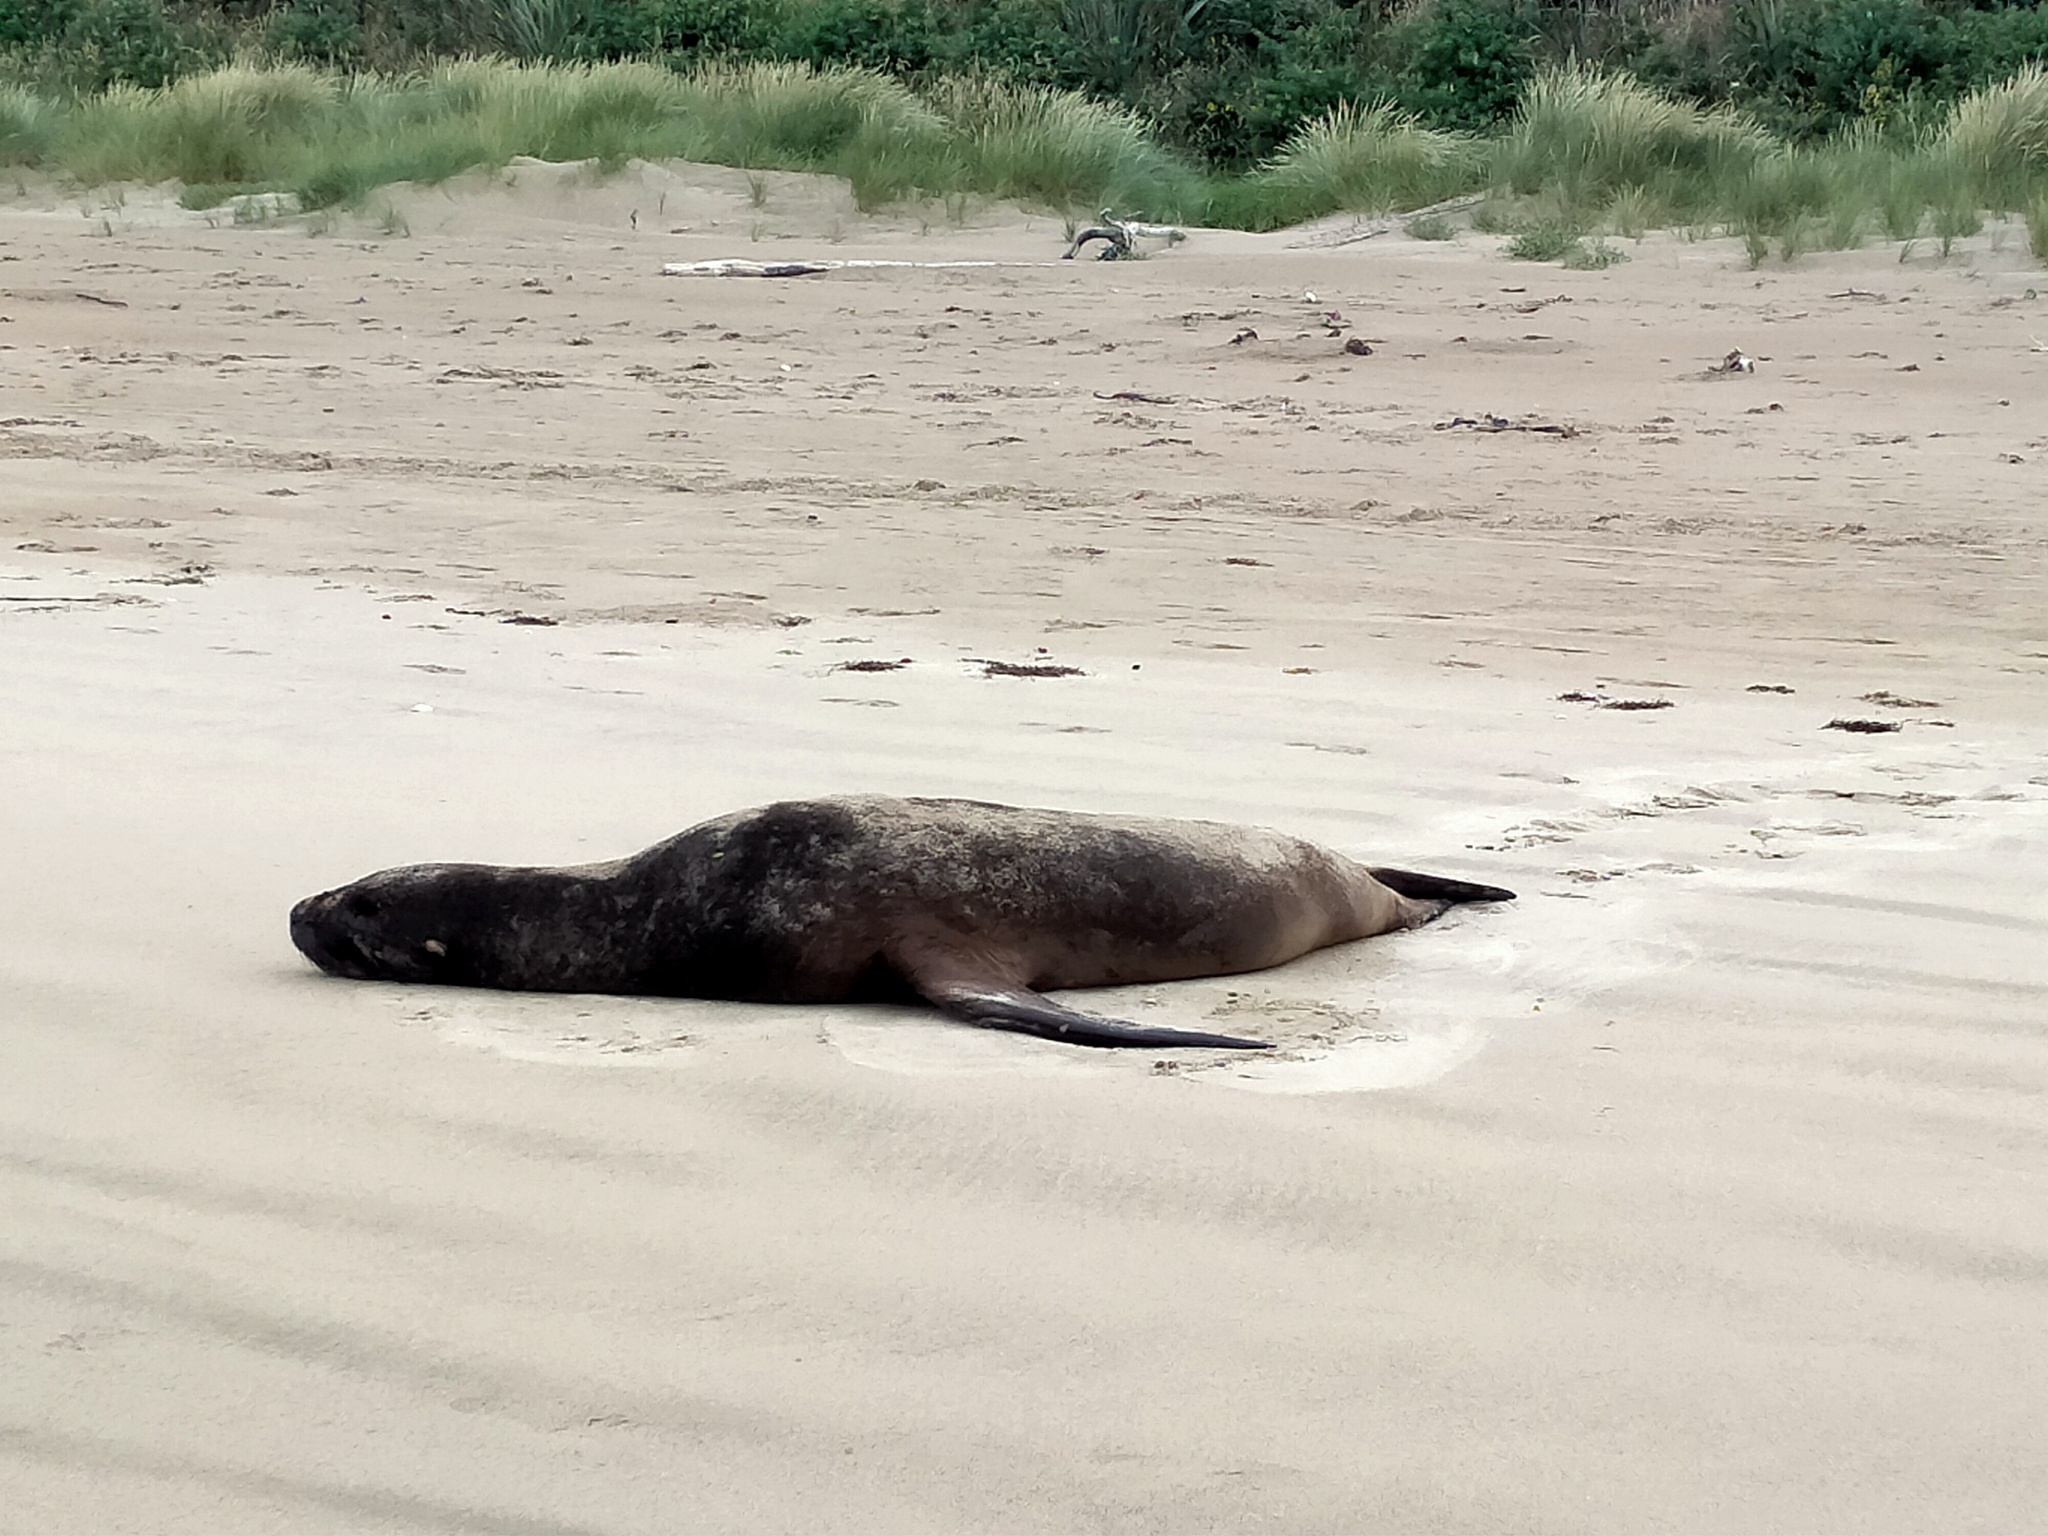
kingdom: Animalia
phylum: Chordata
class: Mammalia
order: Carnivora
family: Otariidae
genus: Phocarctos
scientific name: Phocarctos hookeri
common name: New zealand sea lion
